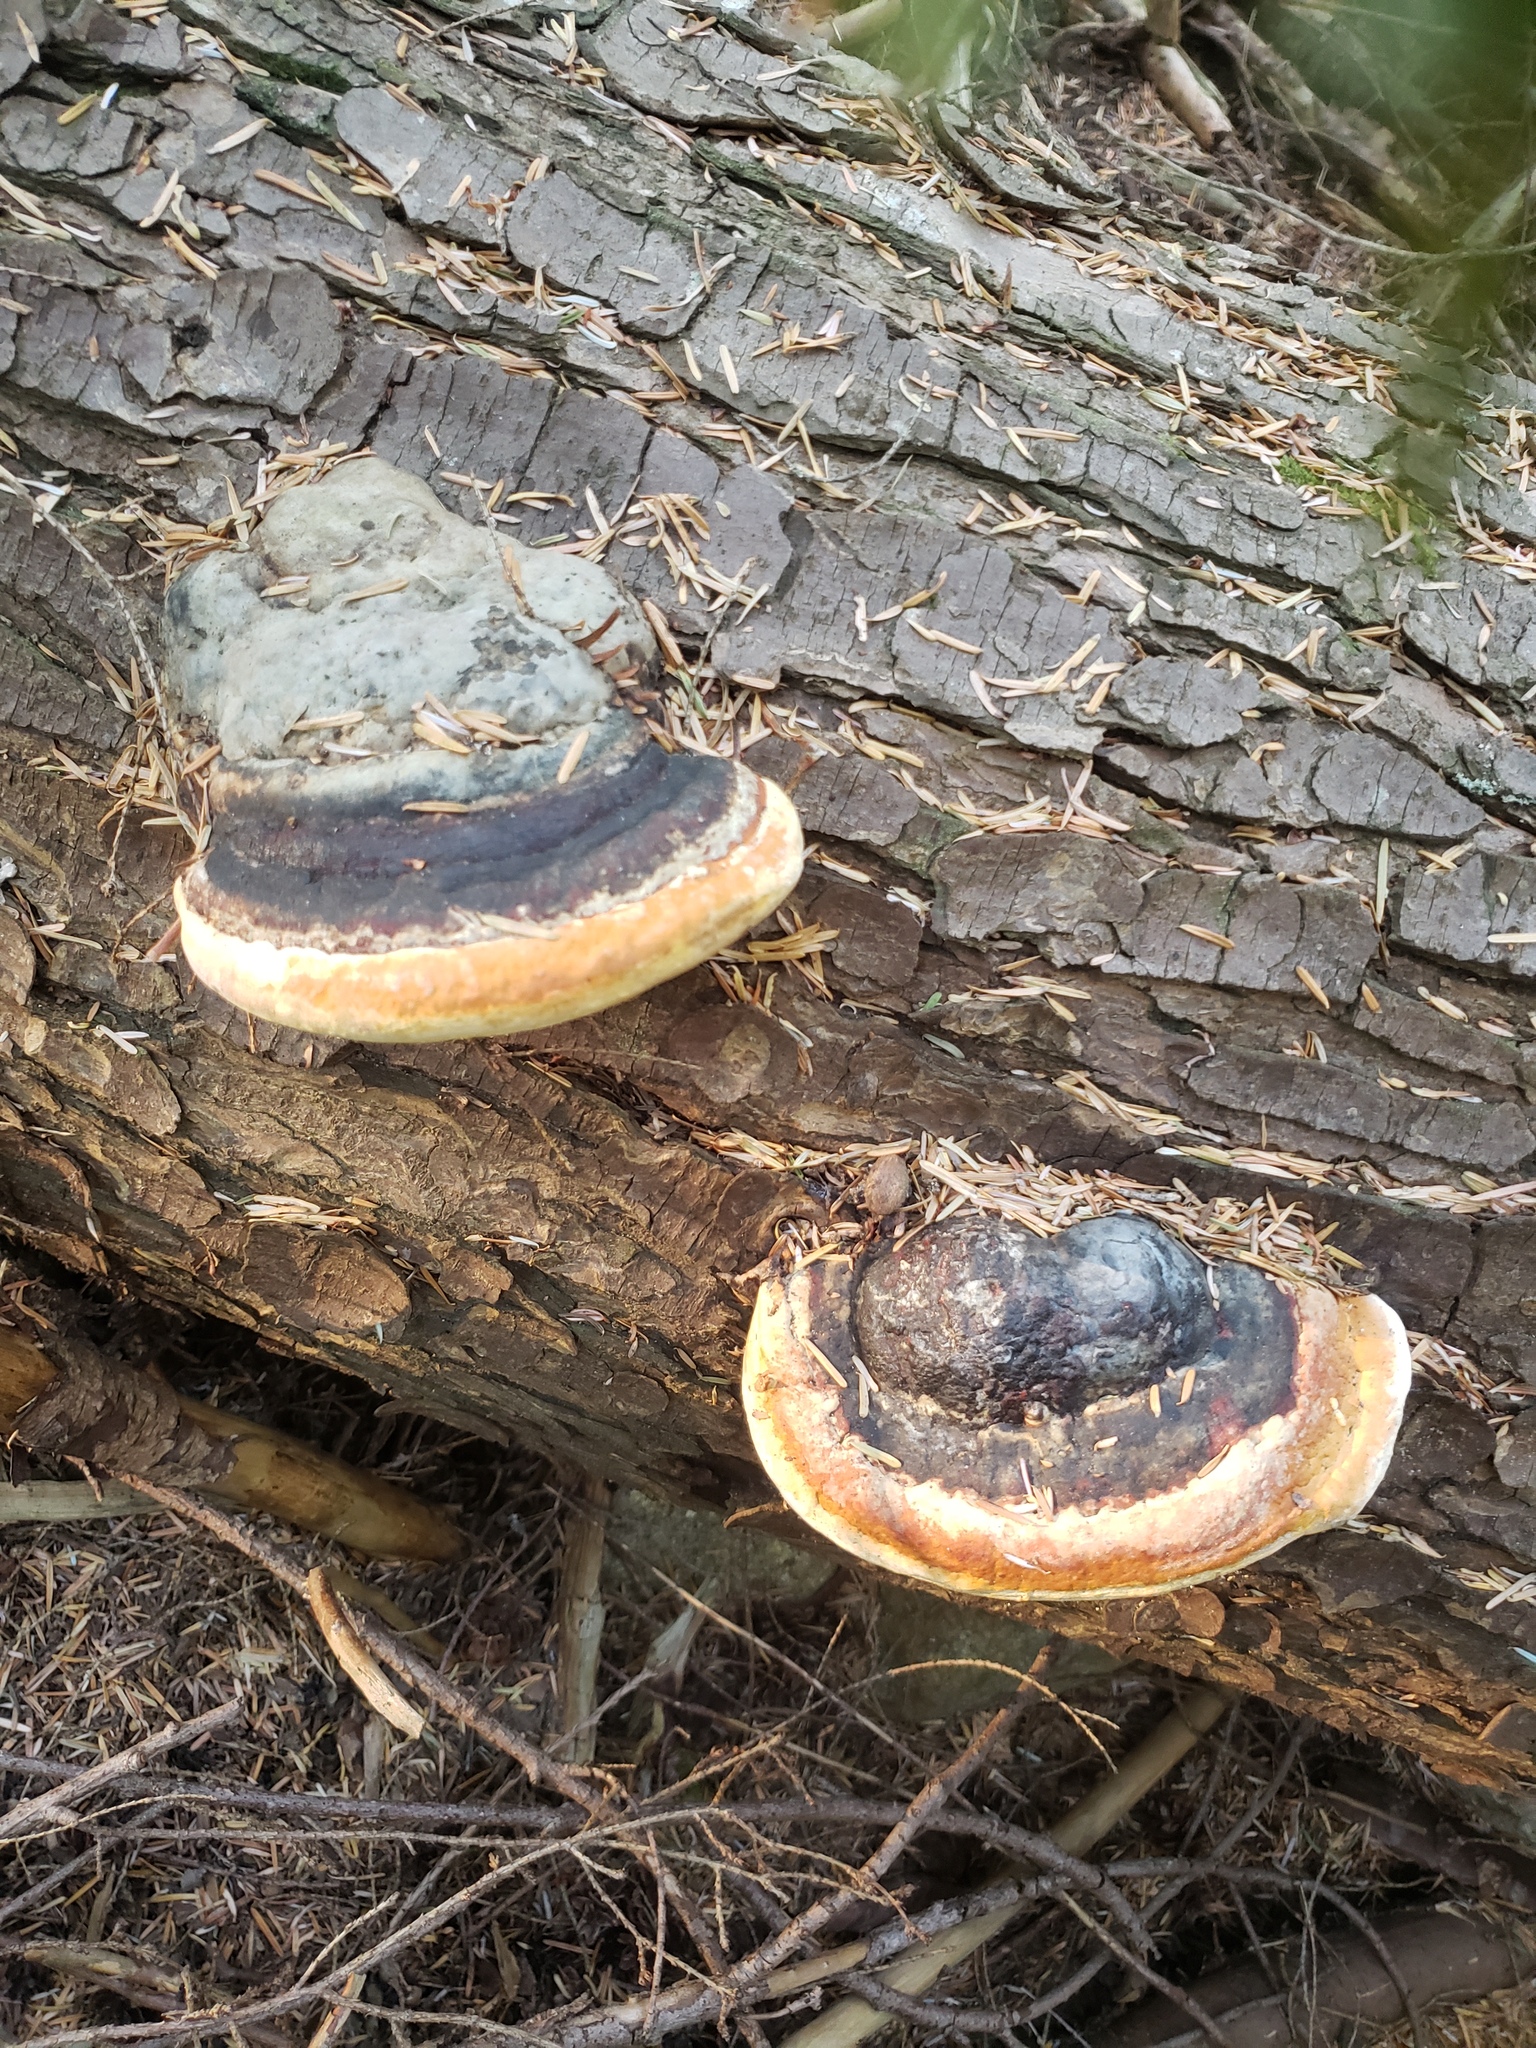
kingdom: Fungi
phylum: Basidiomycota
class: Agaricomycetes
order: Polyporales
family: Fomitopsidaceae
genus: Fomitopsis
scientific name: Fomitopsis mounceae
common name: Northern red belt
